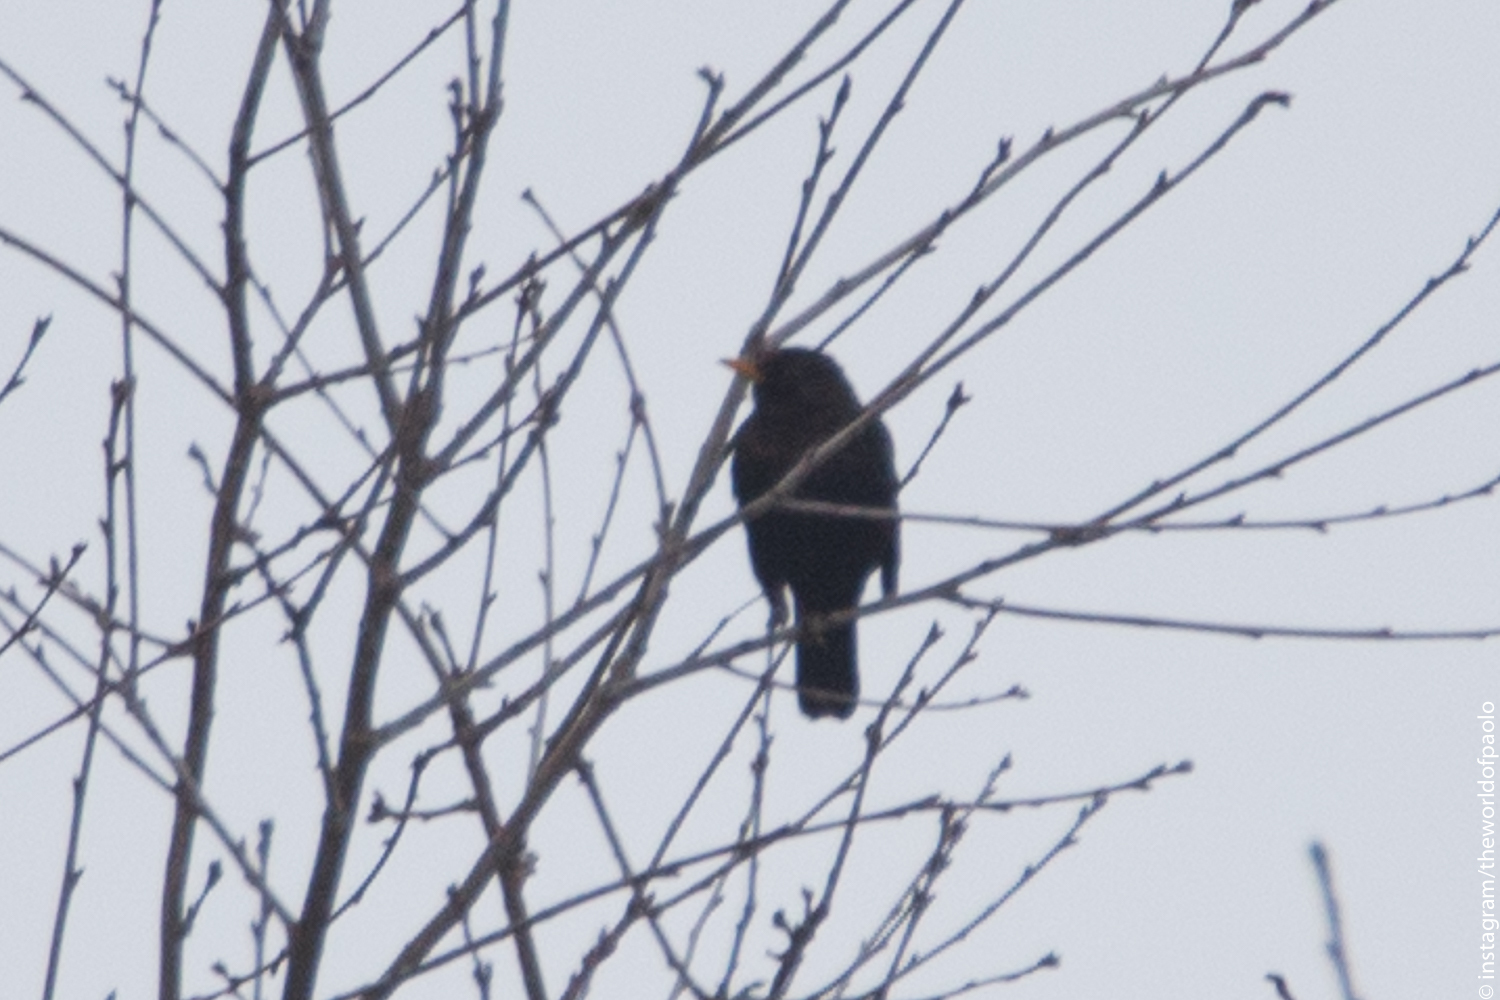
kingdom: Animalia
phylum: Chordata
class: Aves
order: Passeriformes
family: Turdidae
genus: Turdus
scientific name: Turdus merula
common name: Common blackbird
